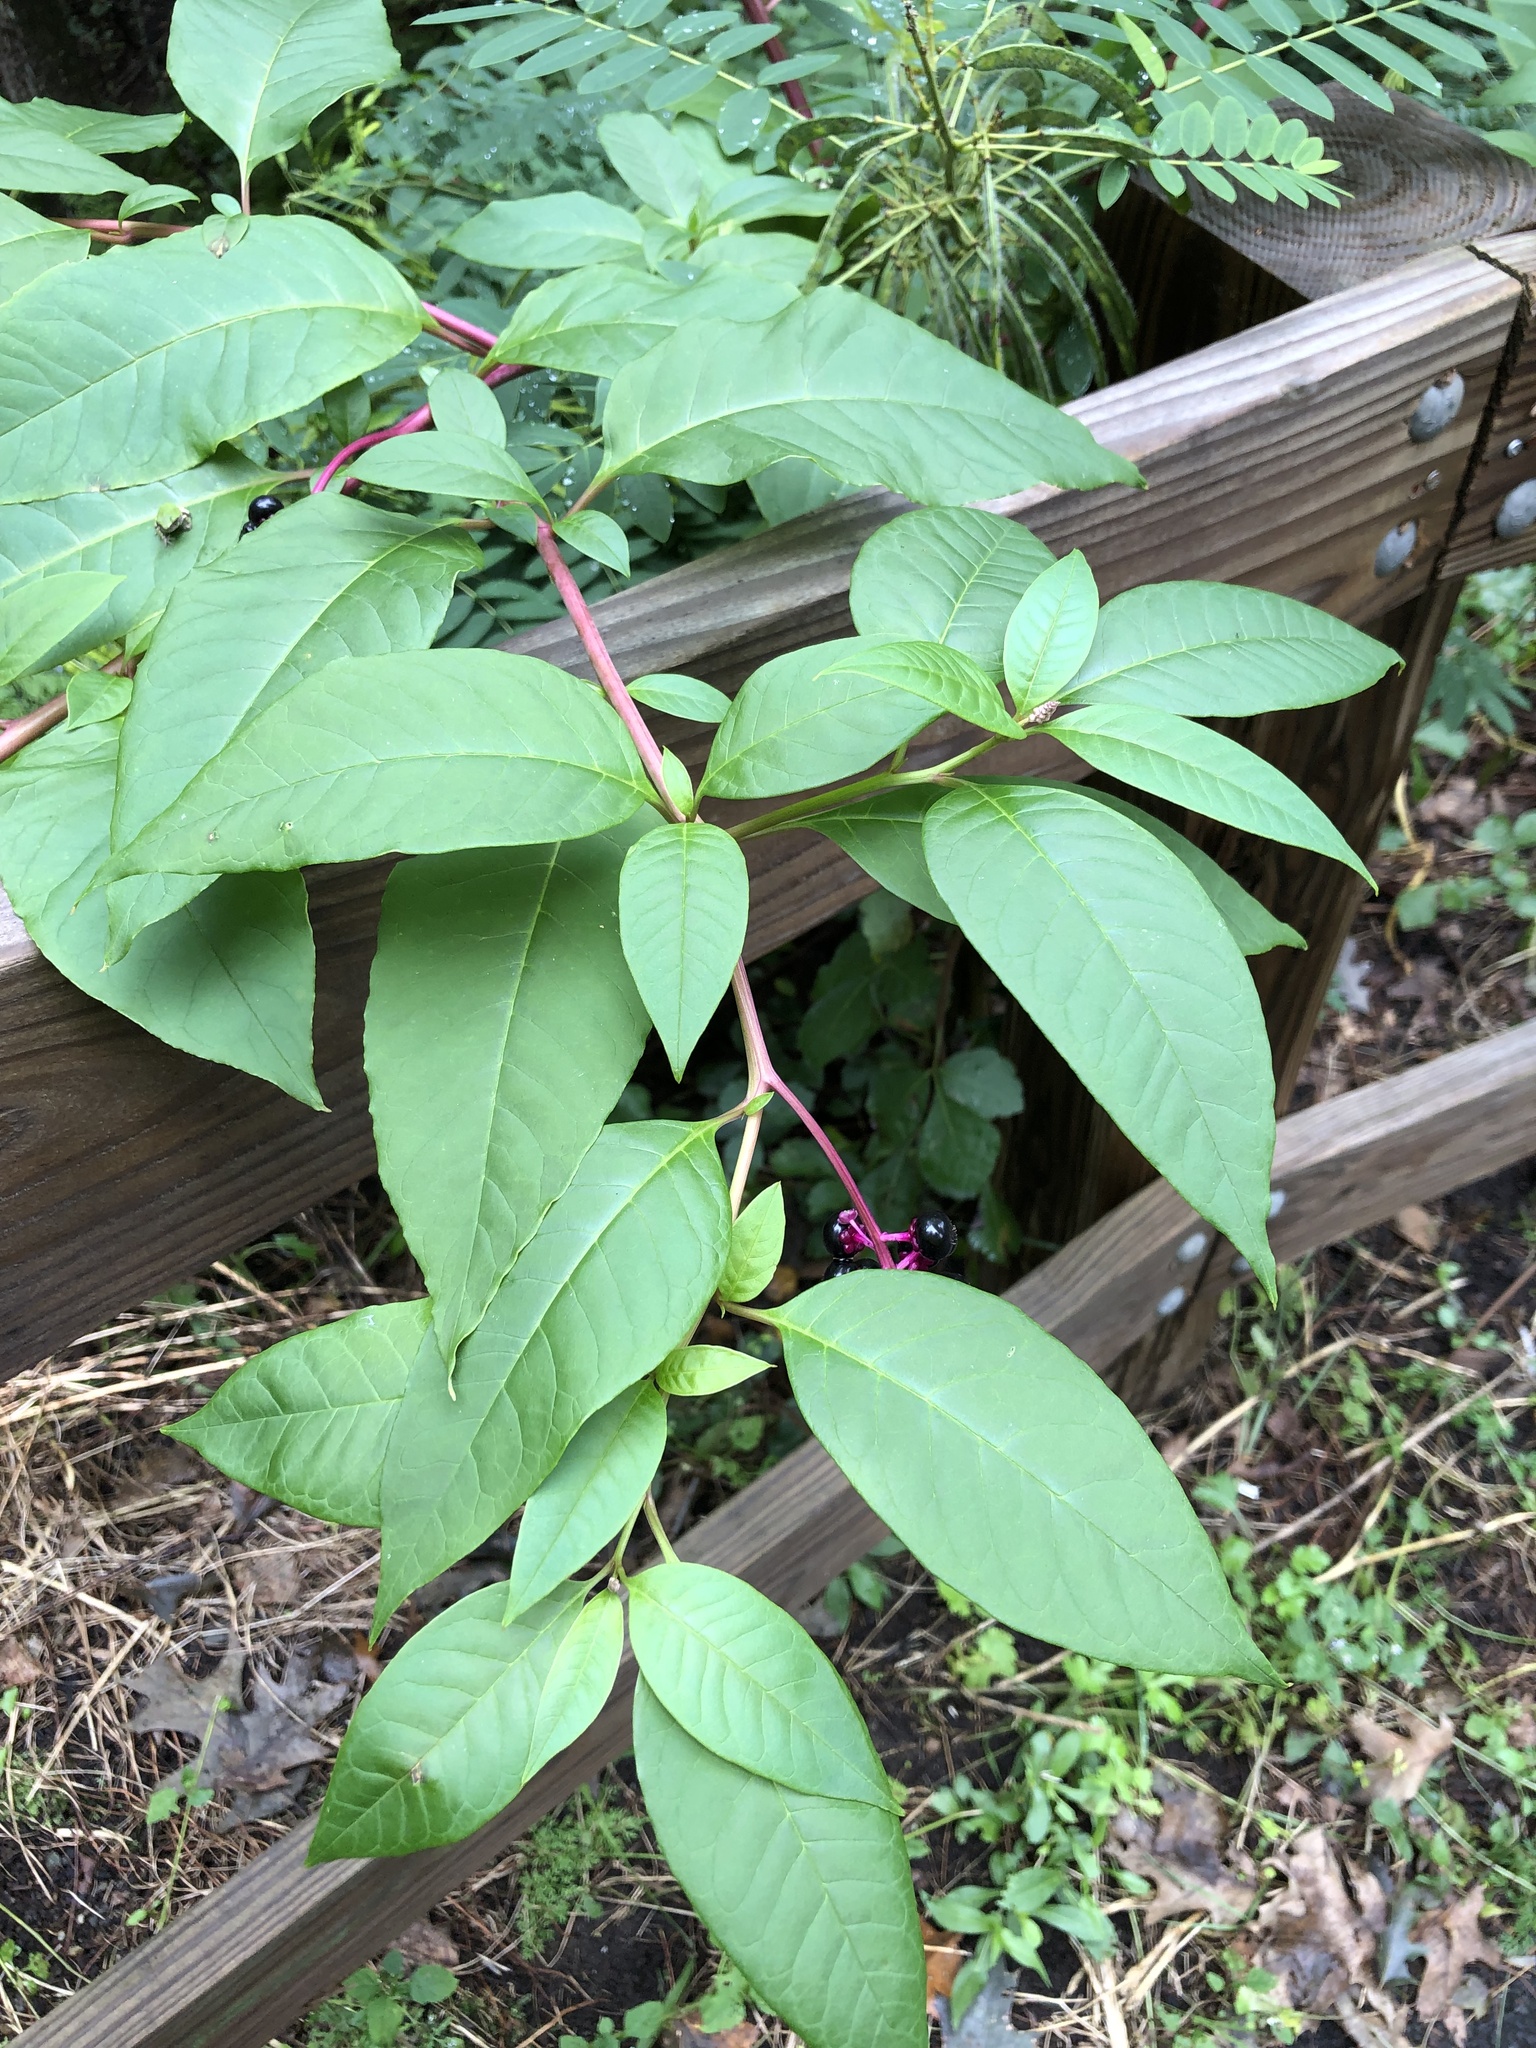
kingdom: Plantae
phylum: Tracheophyta
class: Magnoliopsida
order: Caryophyllales
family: Phytolaccaceae
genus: Phytolacca
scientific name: Phytolacca americana
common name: American pokeweed
